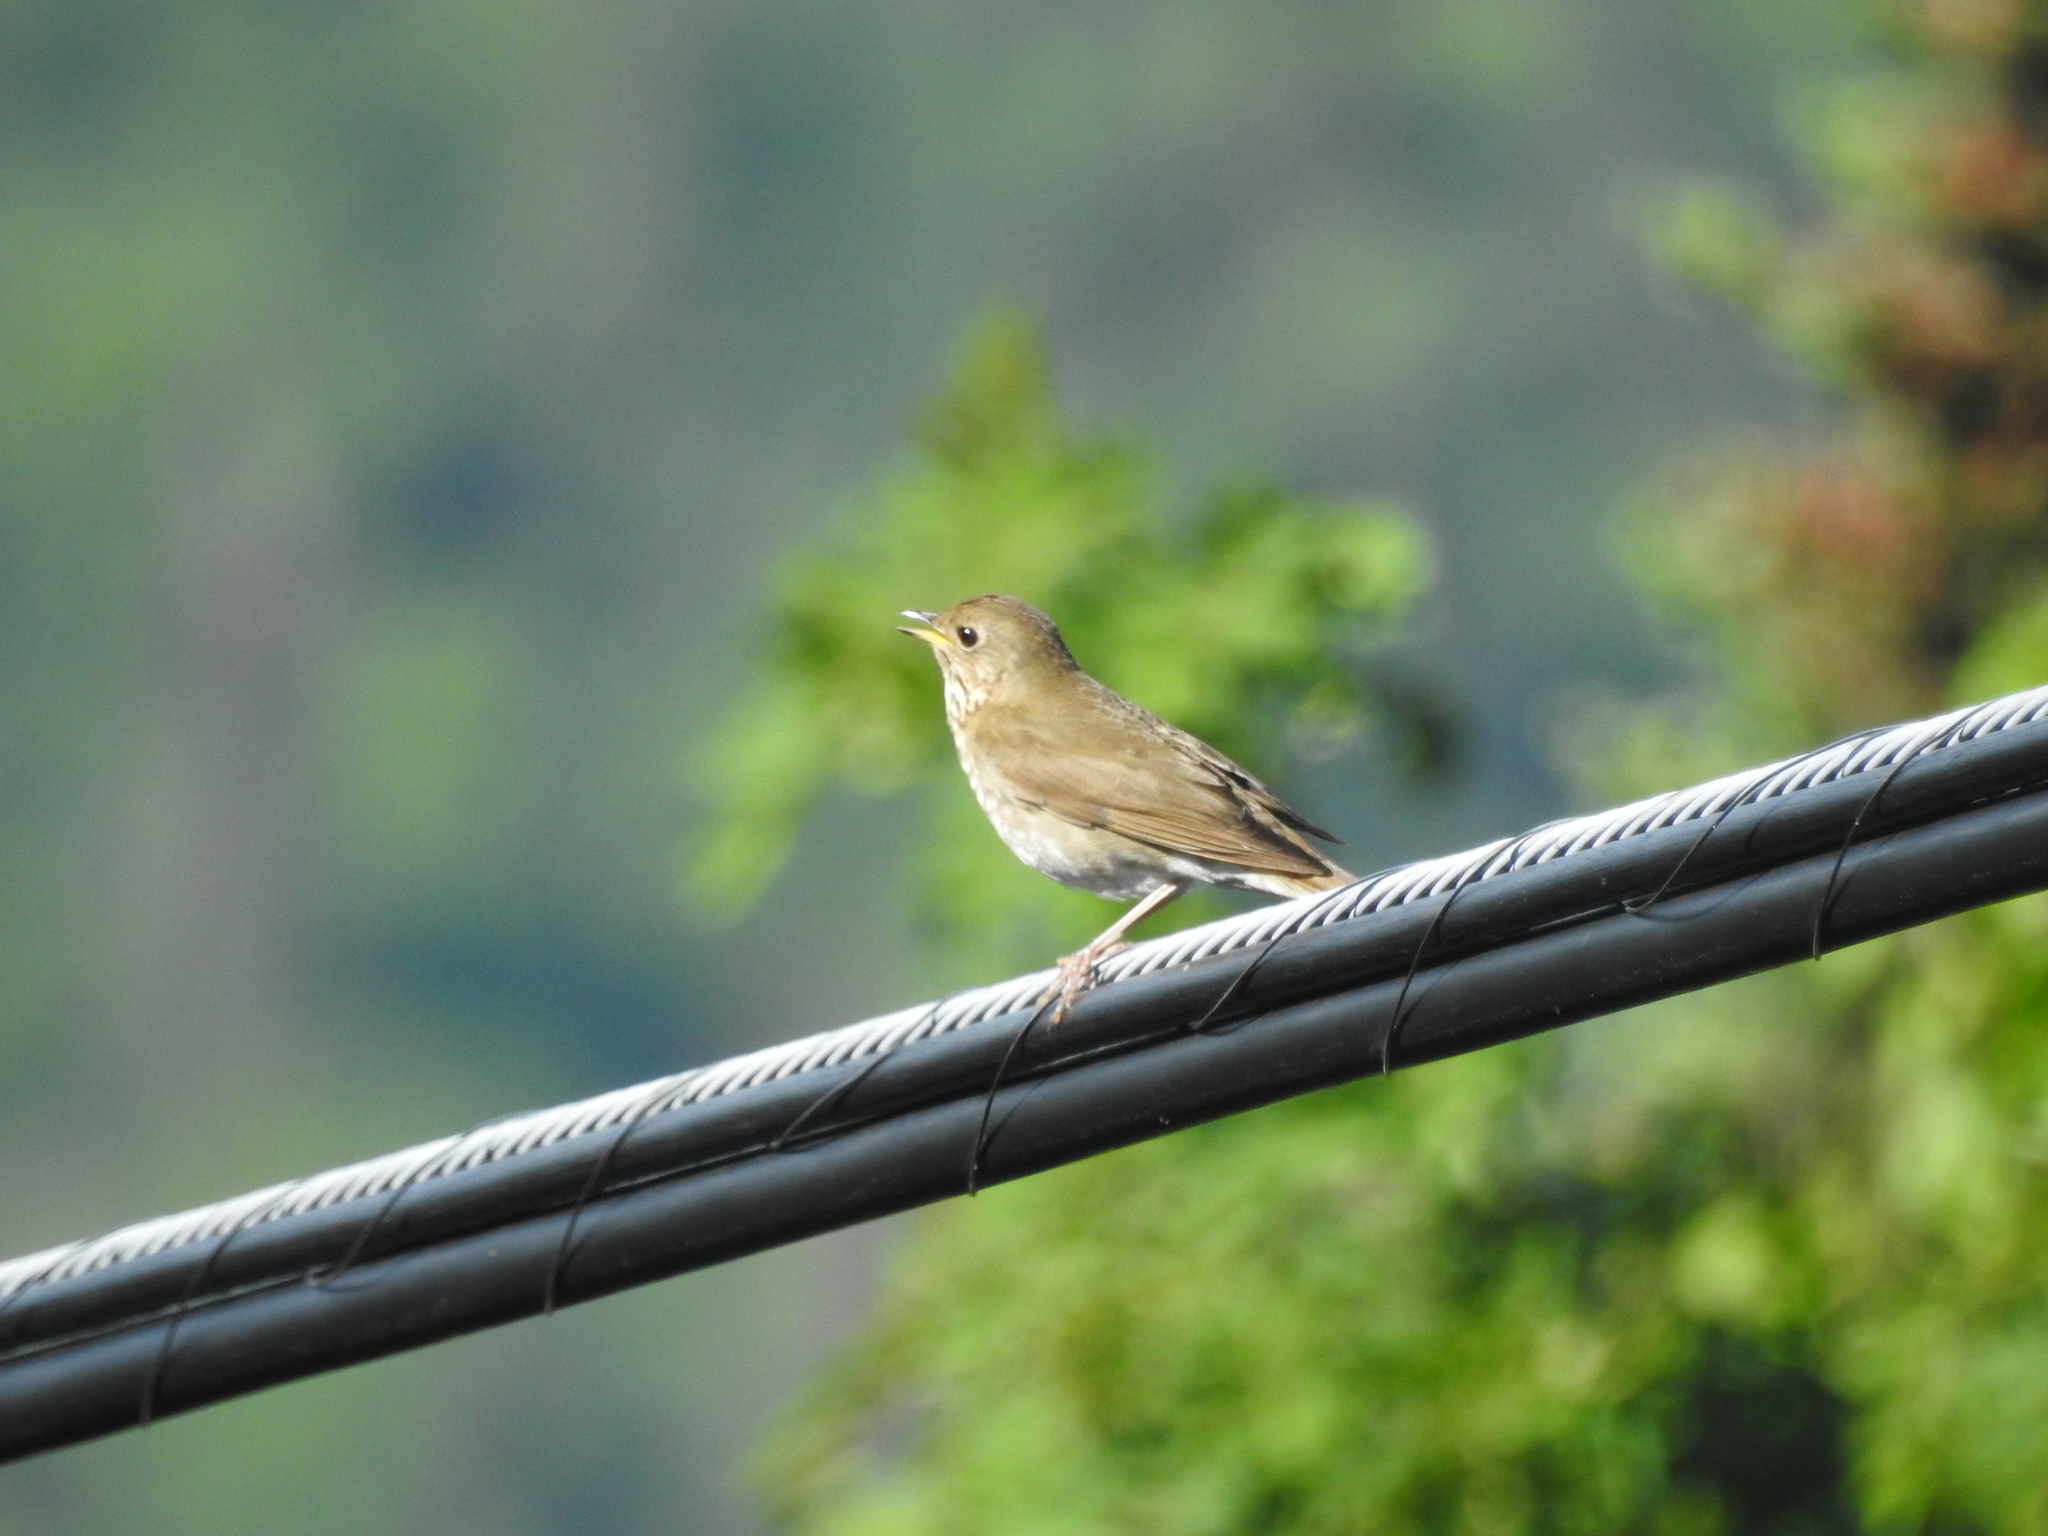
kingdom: Animalia
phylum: Chordata
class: Aves
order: Passeriformes
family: Turdidae
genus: Catharus
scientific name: Catharus bicknelli
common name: Bicknell's thrush
